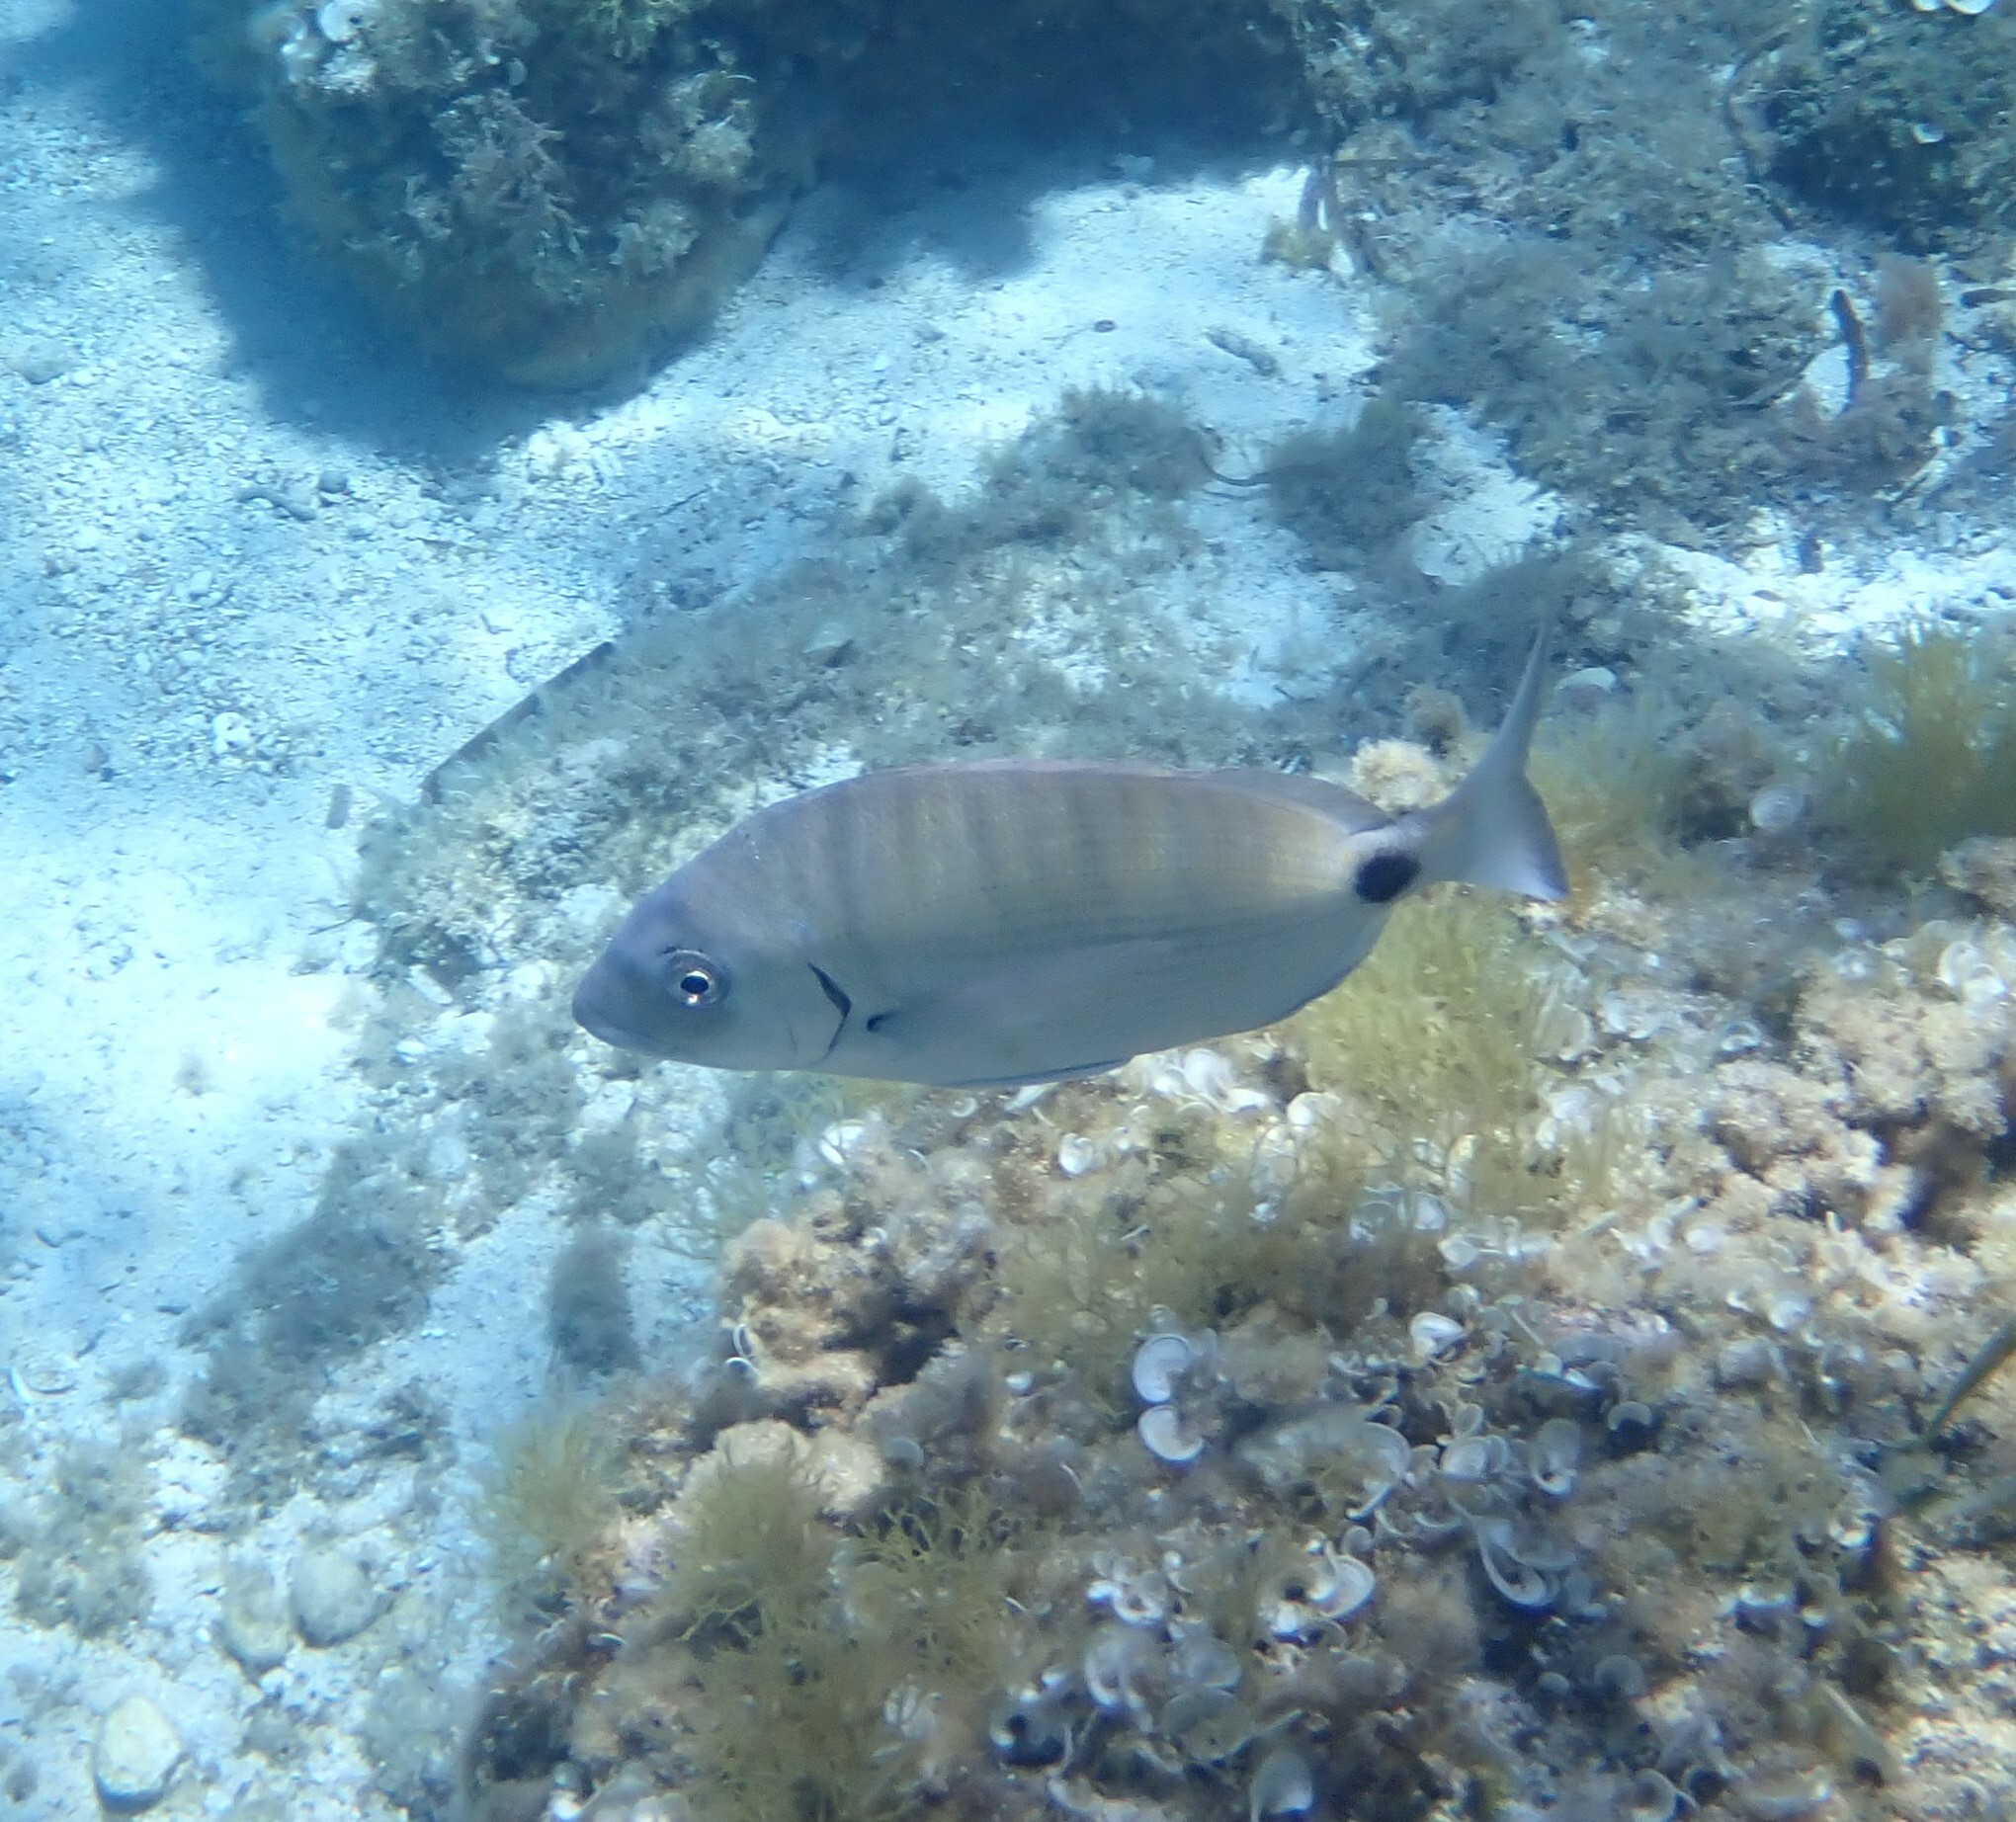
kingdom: Animalia
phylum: Chordata
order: Perciformes
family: Sparidae
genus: Diplodus
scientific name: Diplodus sargus
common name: White seabream
